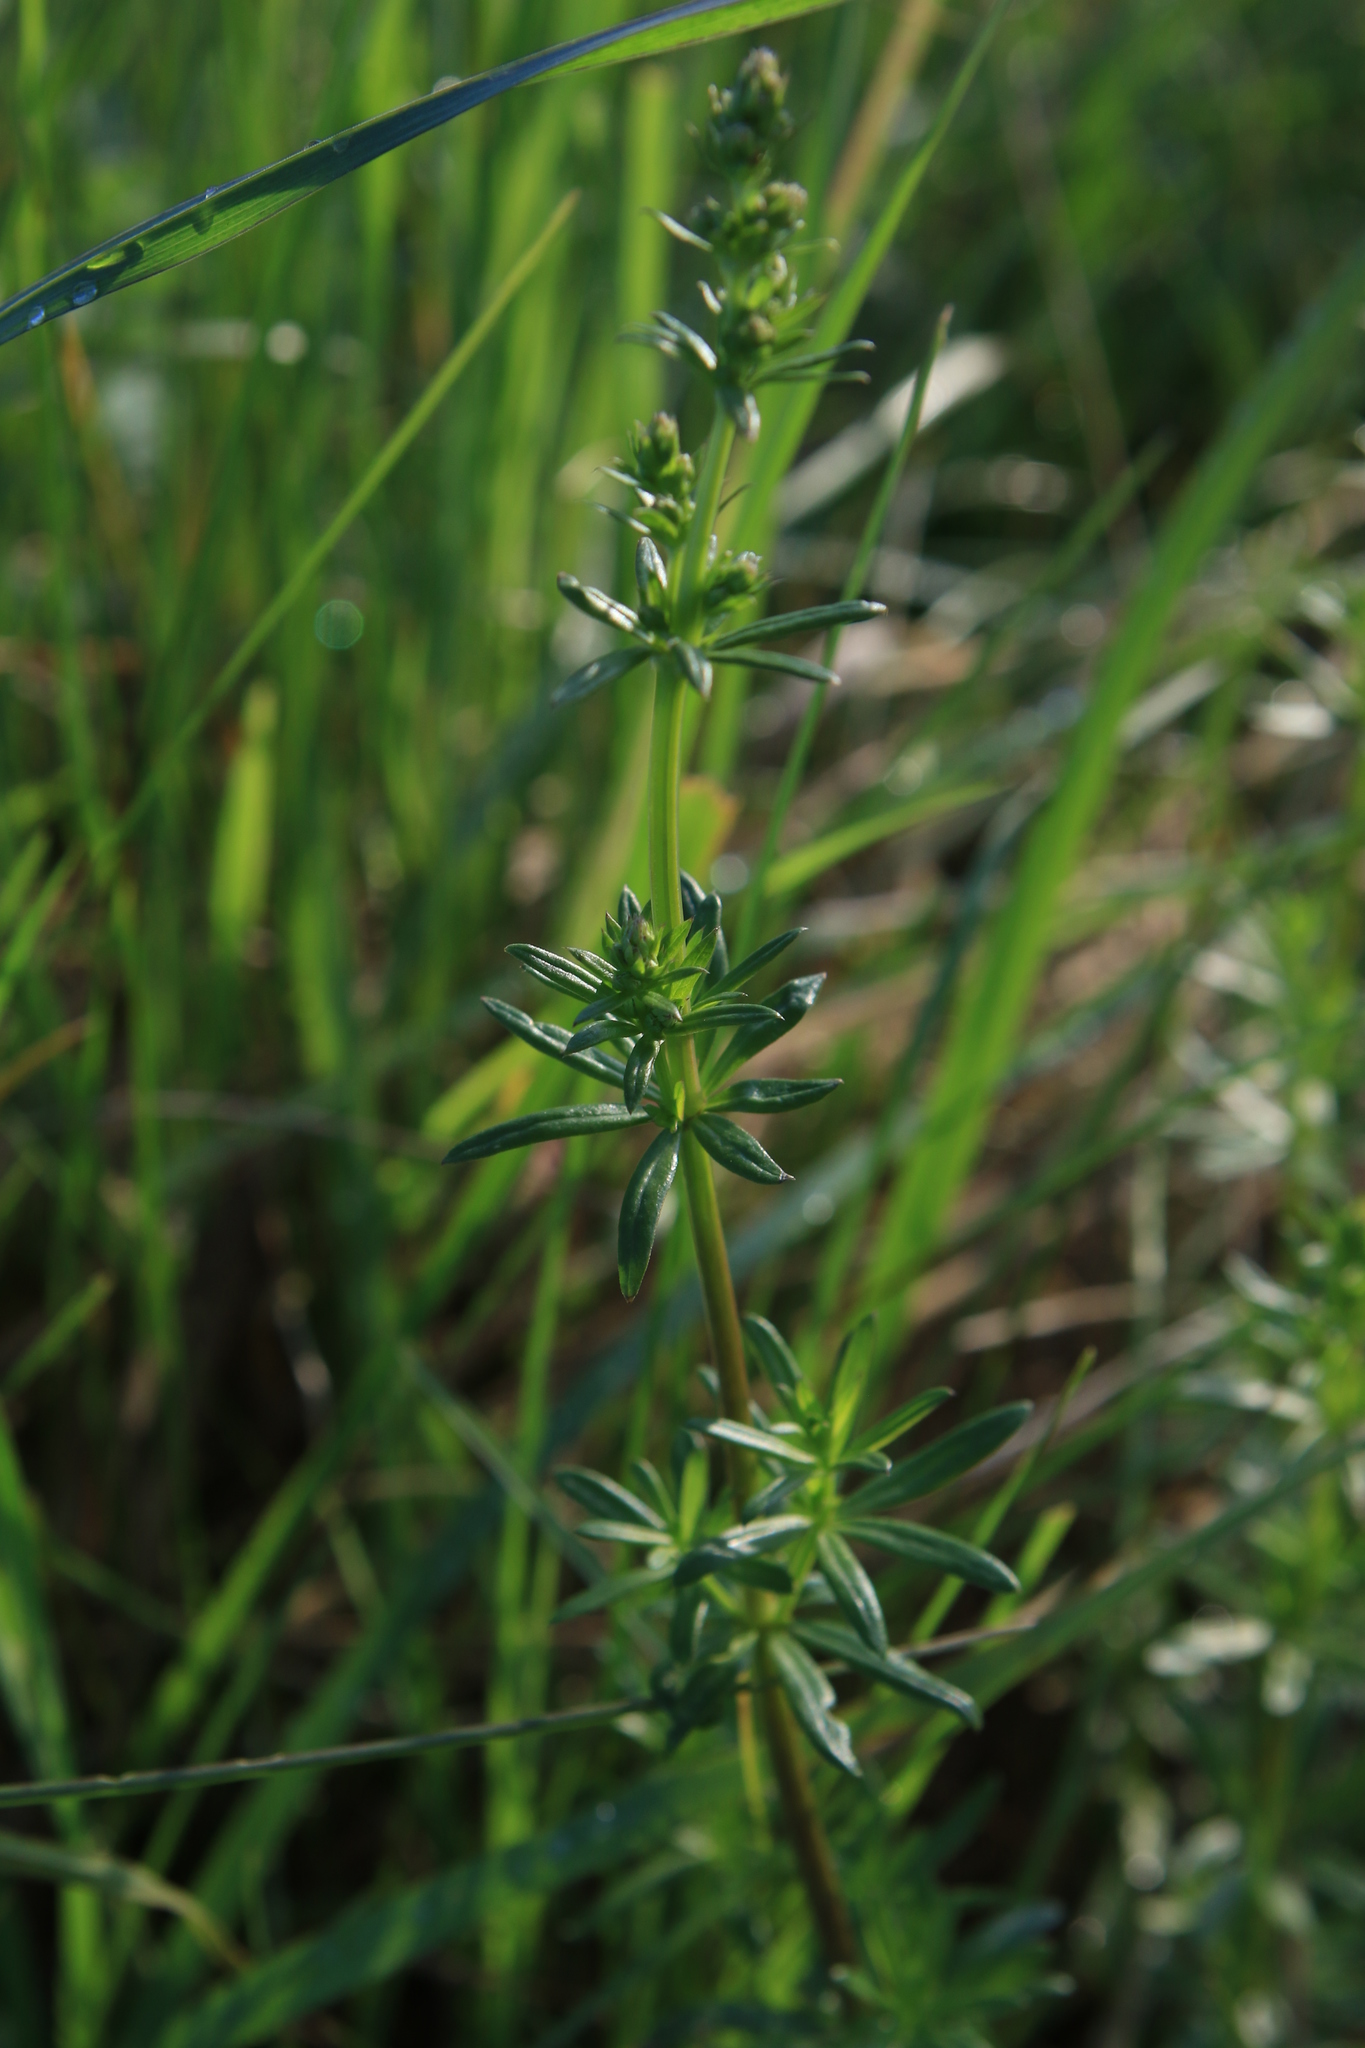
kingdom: Plantae
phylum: Tracheophyta
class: Magnoliopsida
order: Gentianales
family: Rubiaceae
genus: Galium
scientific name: Galium mollugo
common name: Hedge bedstraw
